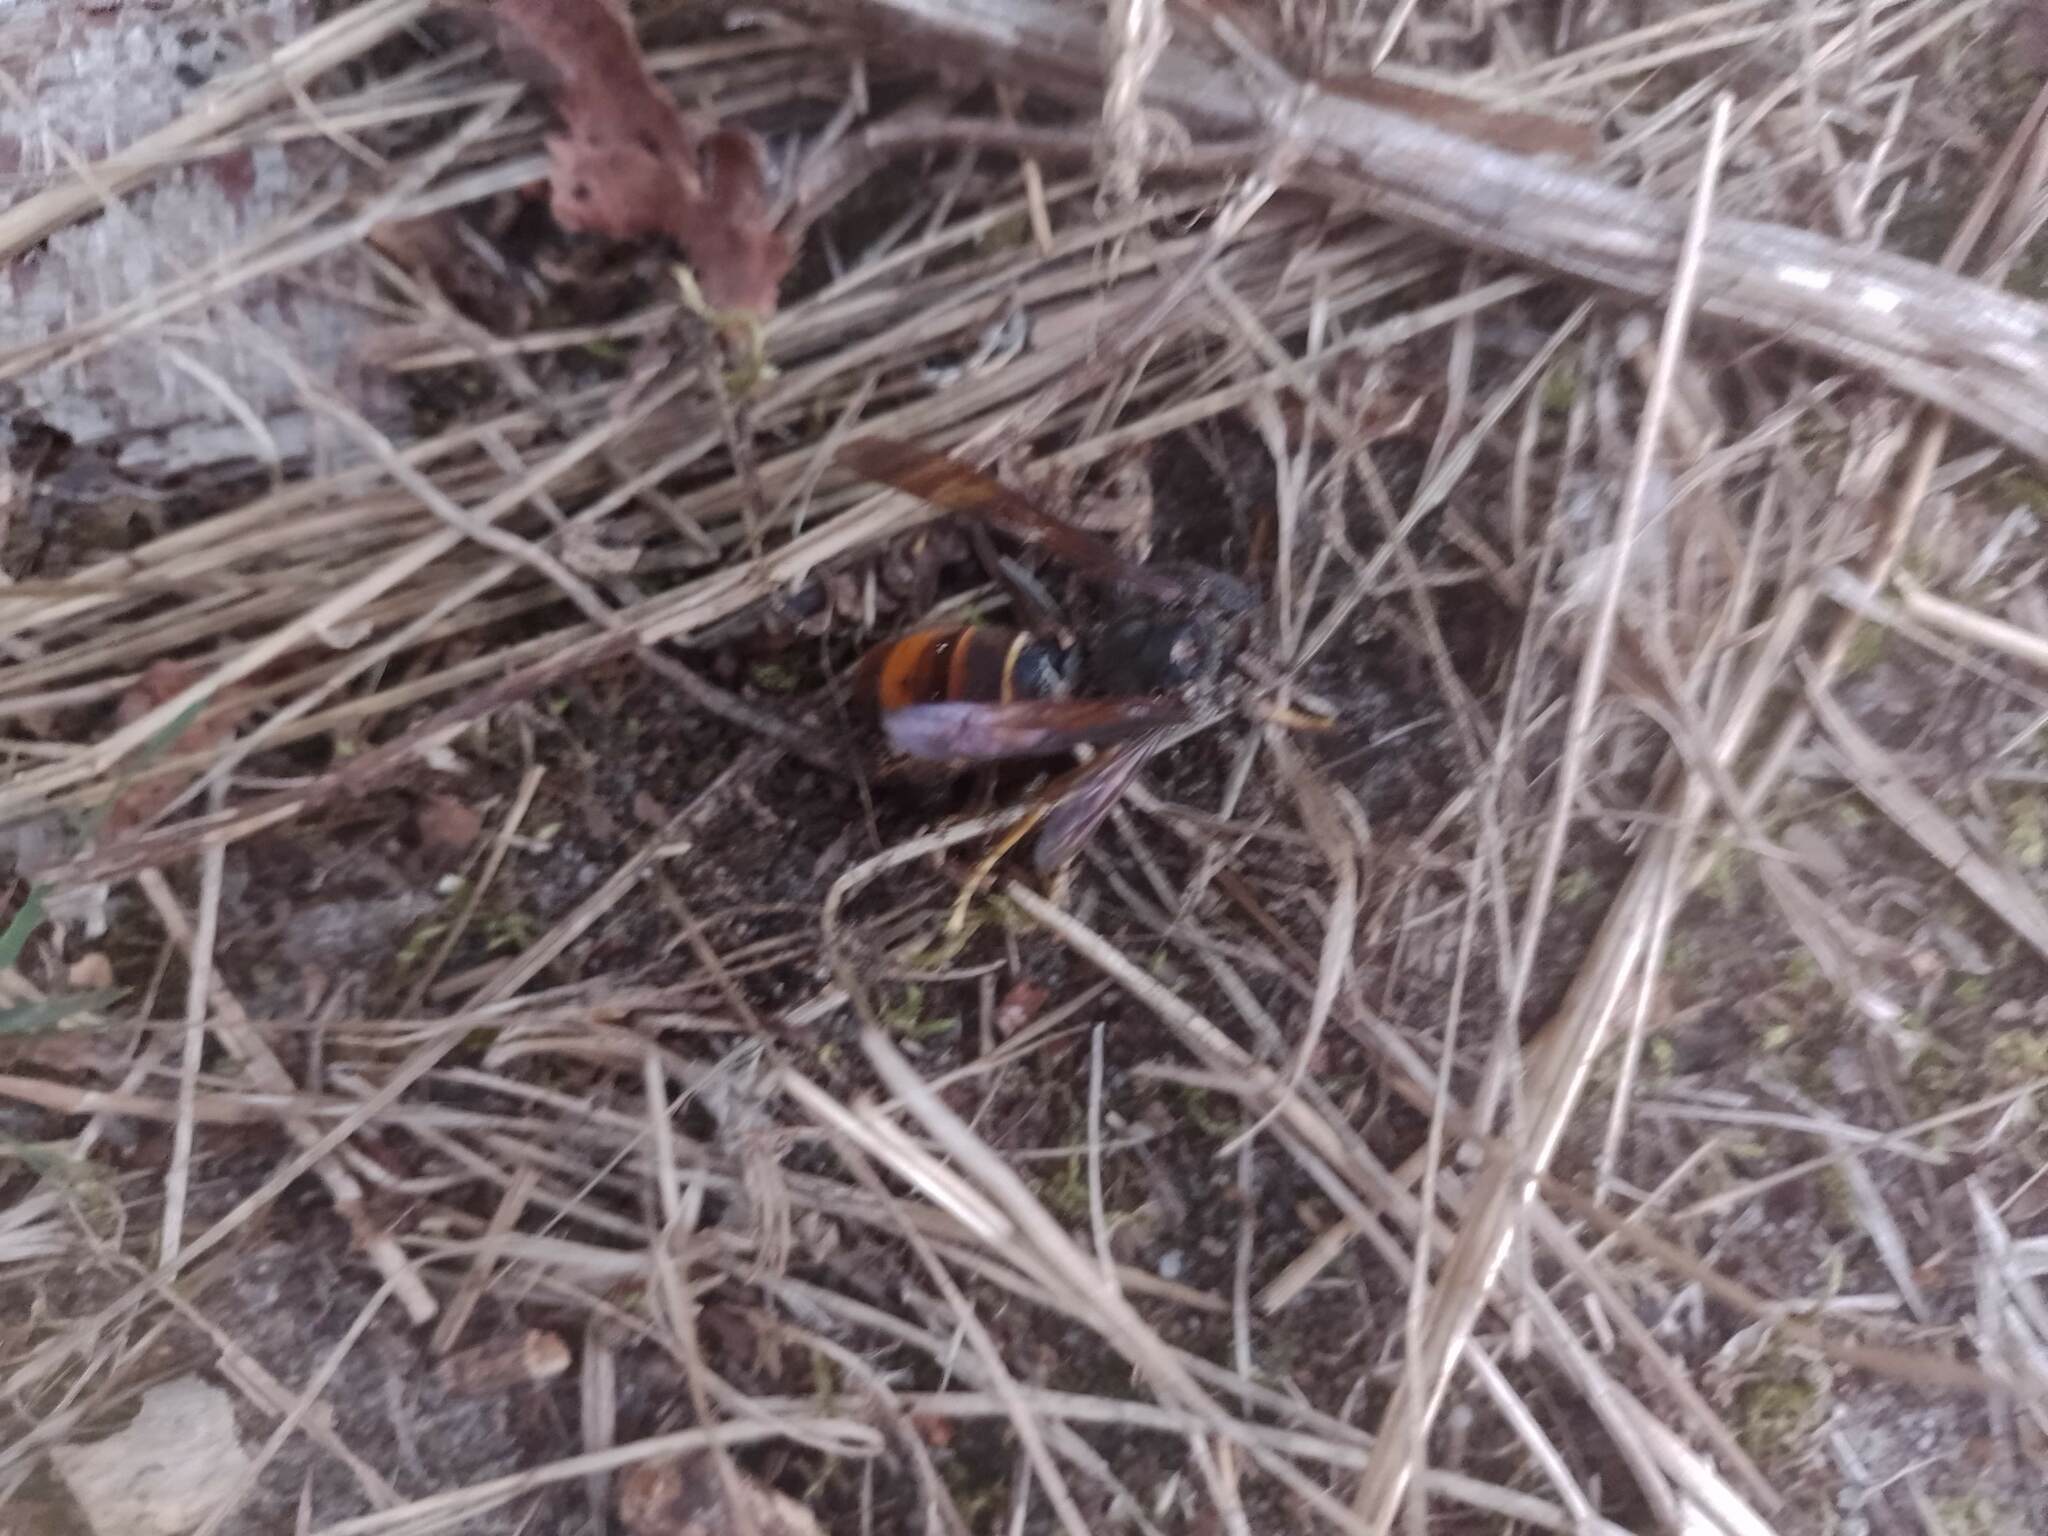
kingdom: Animalia
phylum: Arthropoda
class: Insecta
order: Hymenoptera
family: Vespidae
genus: Vespa
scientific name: Vespa velutina
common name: Asian hornet
